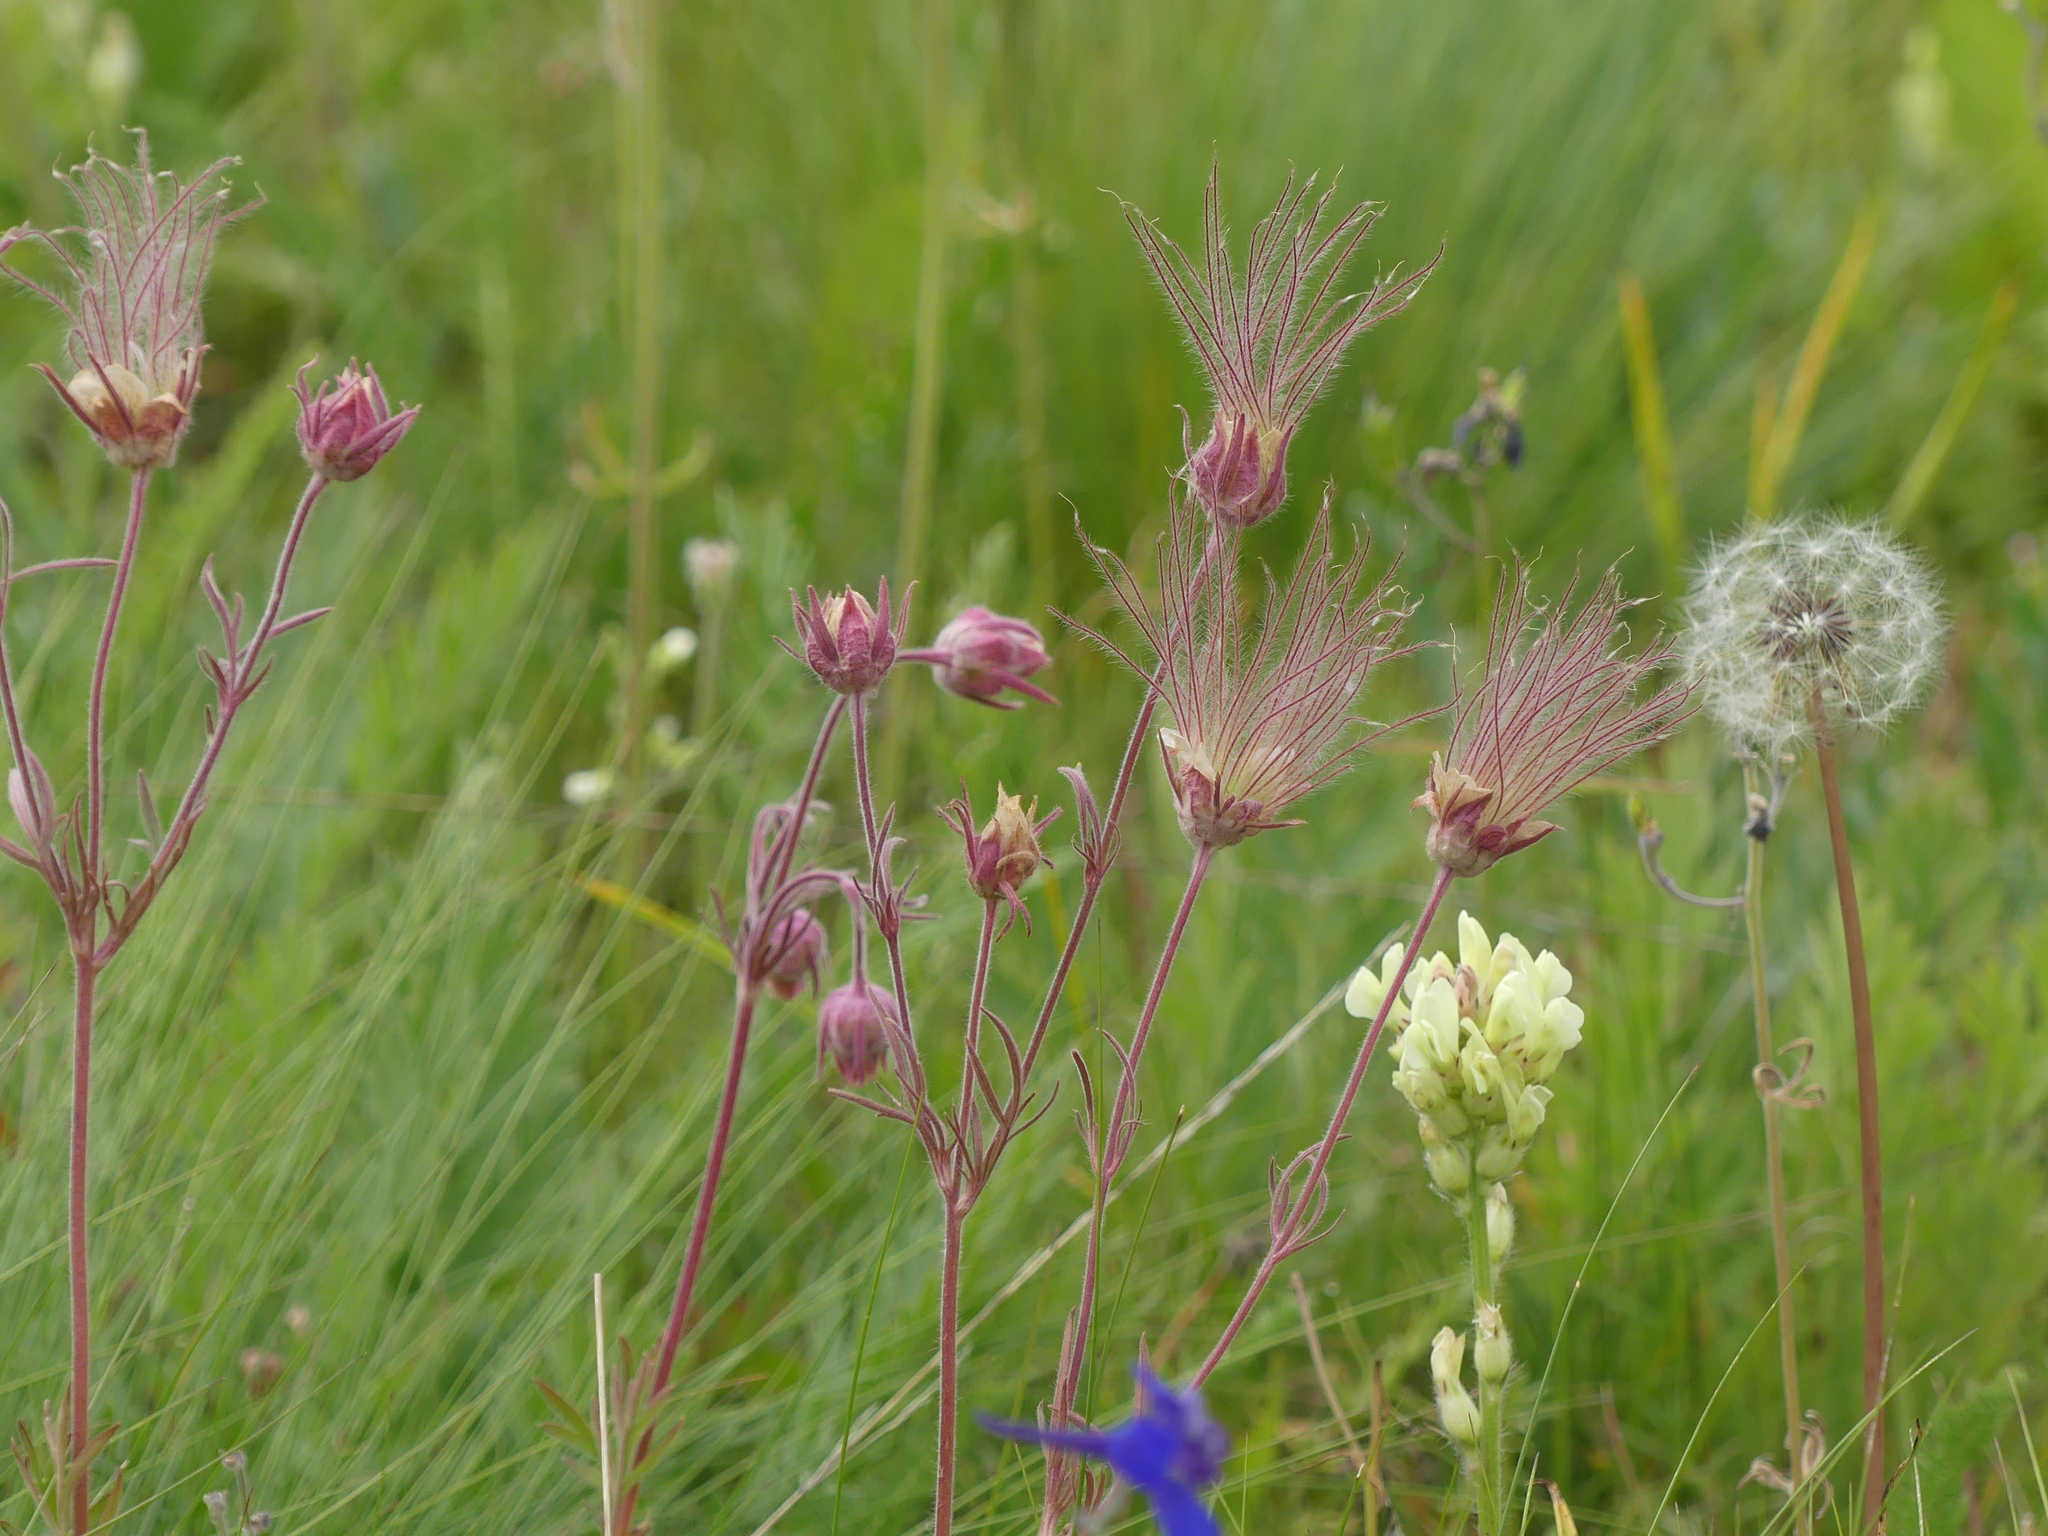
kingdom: Plantae
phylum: Tracheophyta
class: Magnoliopsida
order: Rosales
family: Rosaceae
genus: Geum
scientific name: Geum triflorum
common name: Old man's whiskers
